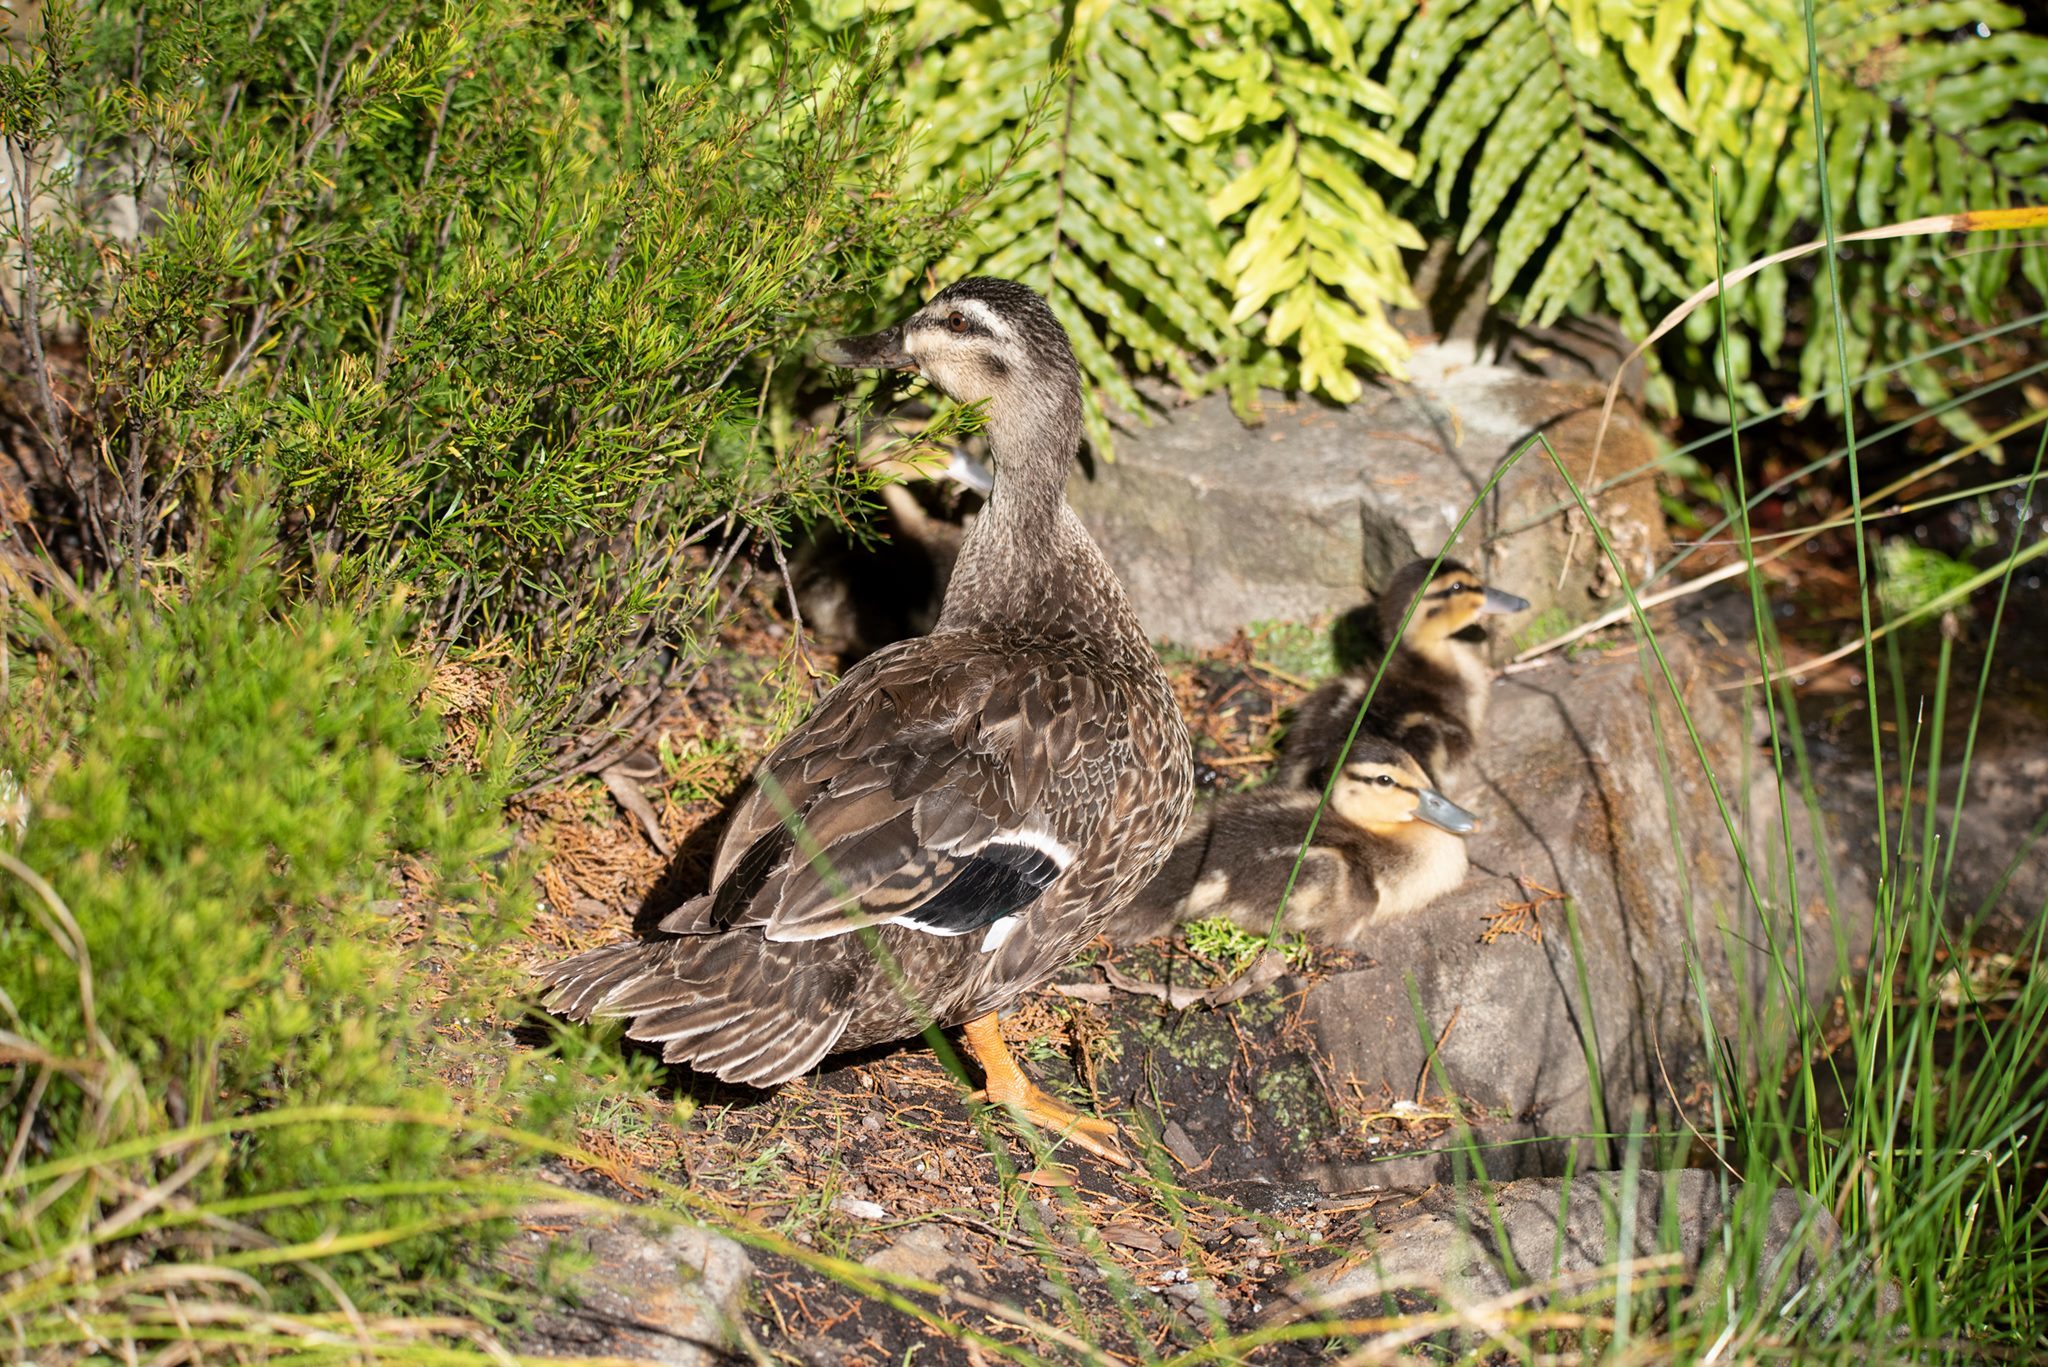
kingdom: Animalia
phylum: Chordata
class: Aves
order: Anseriformes
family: Anatidae
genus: Anas
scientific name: Anas
